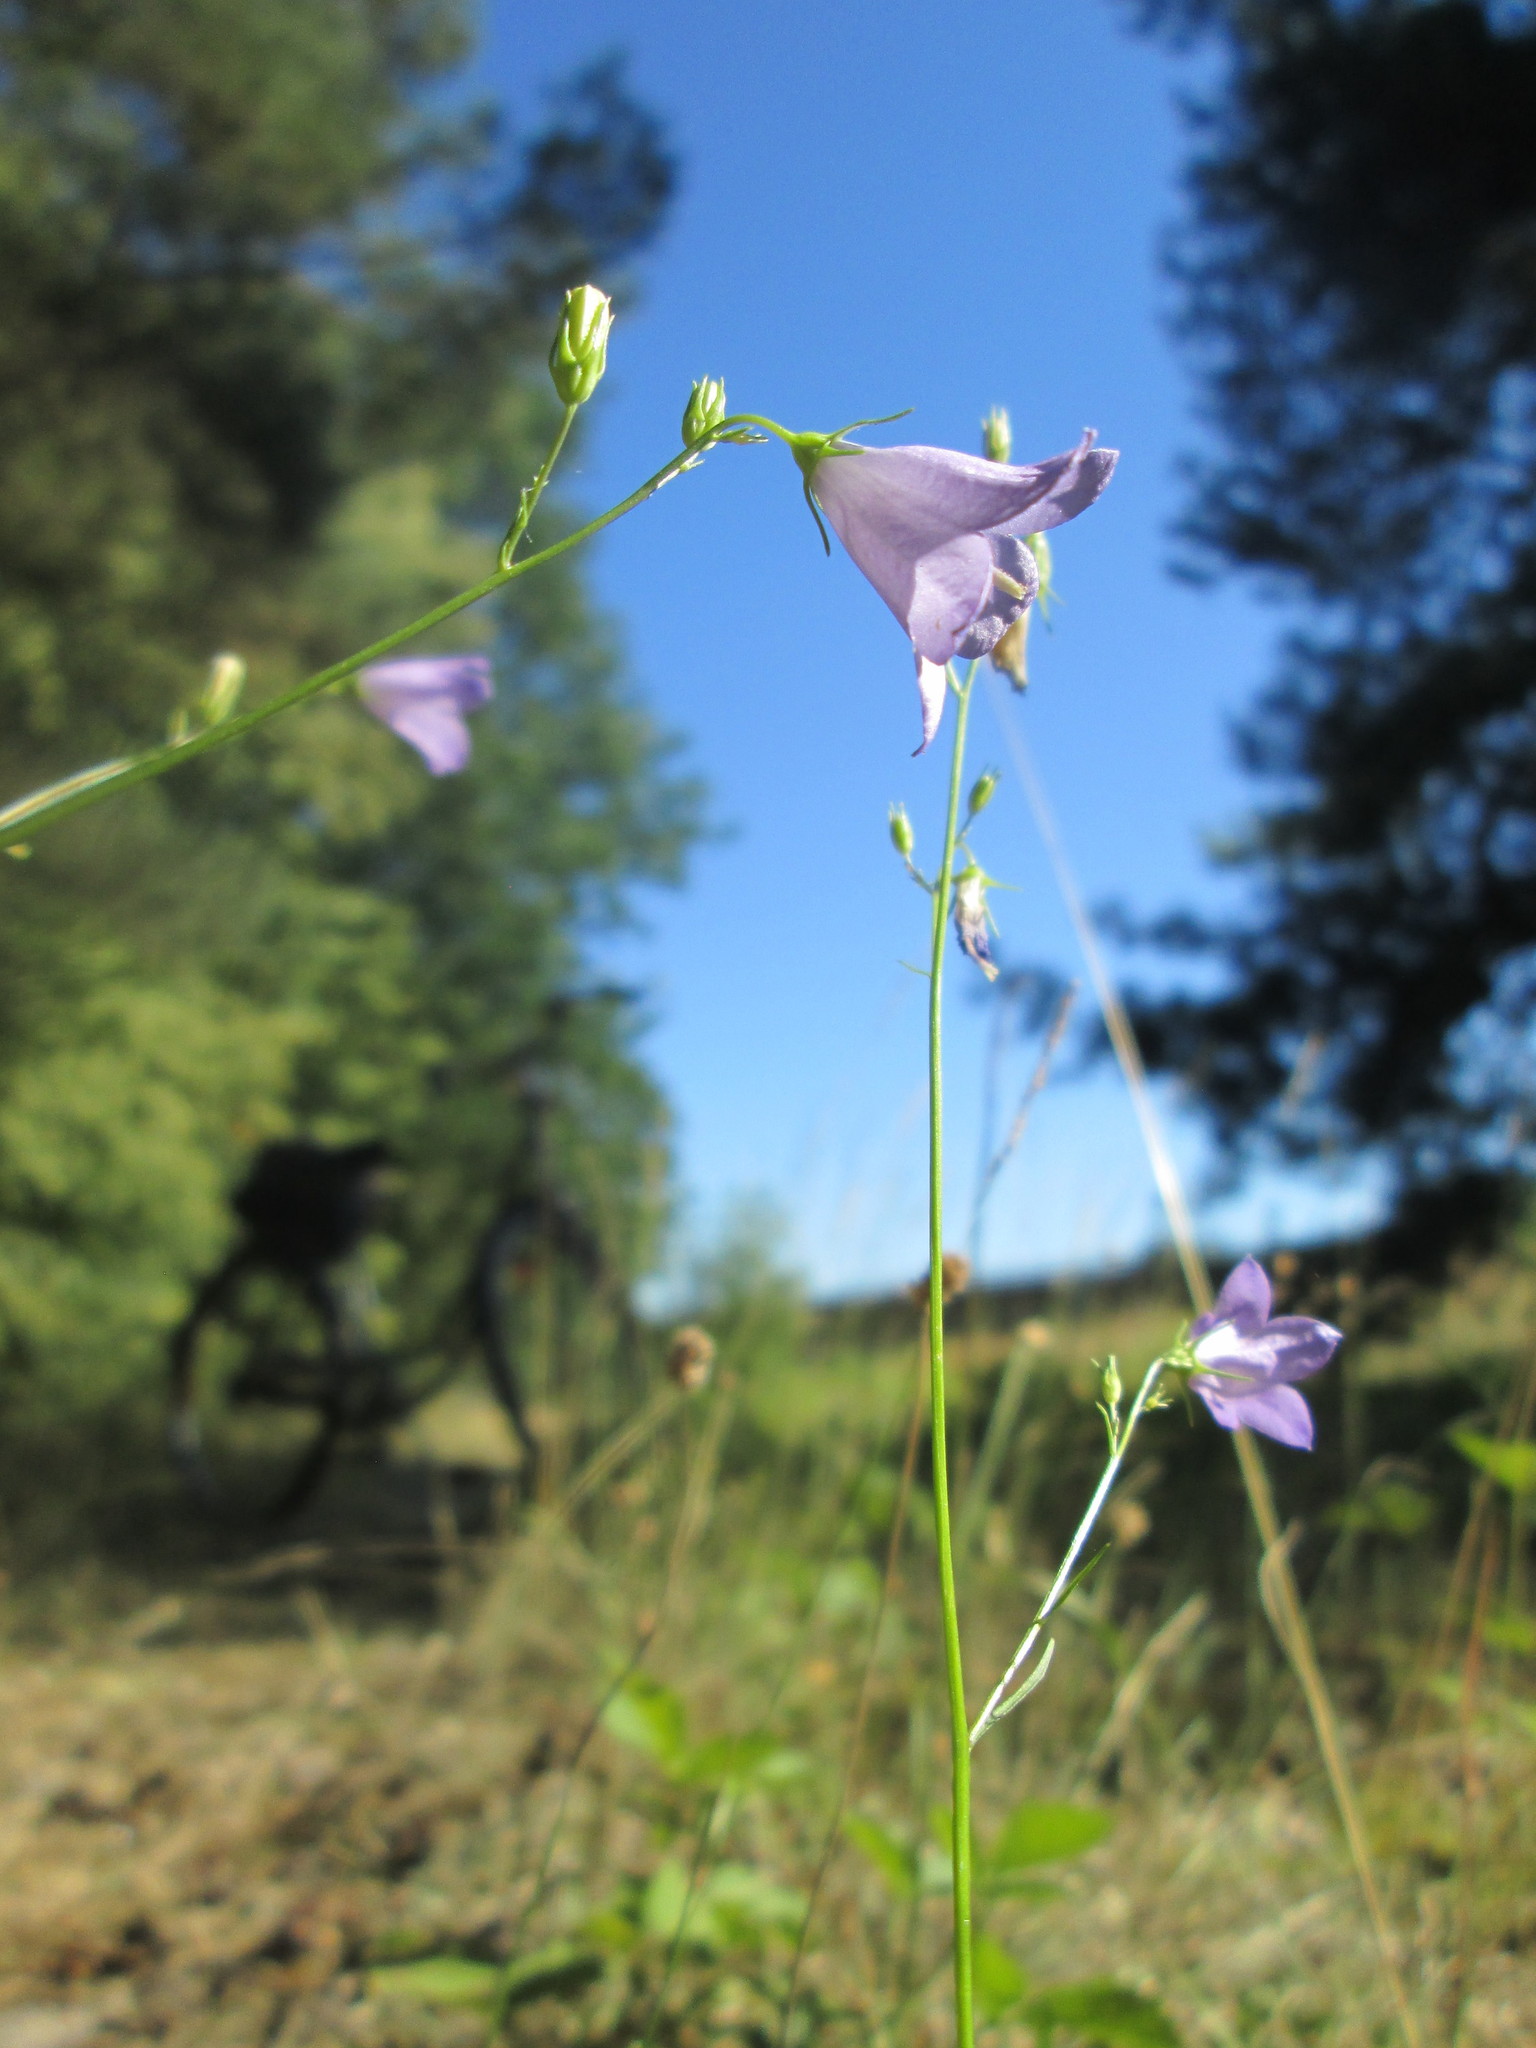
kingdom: Plantae
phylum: Tracheophyta
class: Magnoliopsida
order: Asterales
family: Campanulaceae
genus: Campanula
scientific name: Campanula rotundifolia
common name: Harebell
